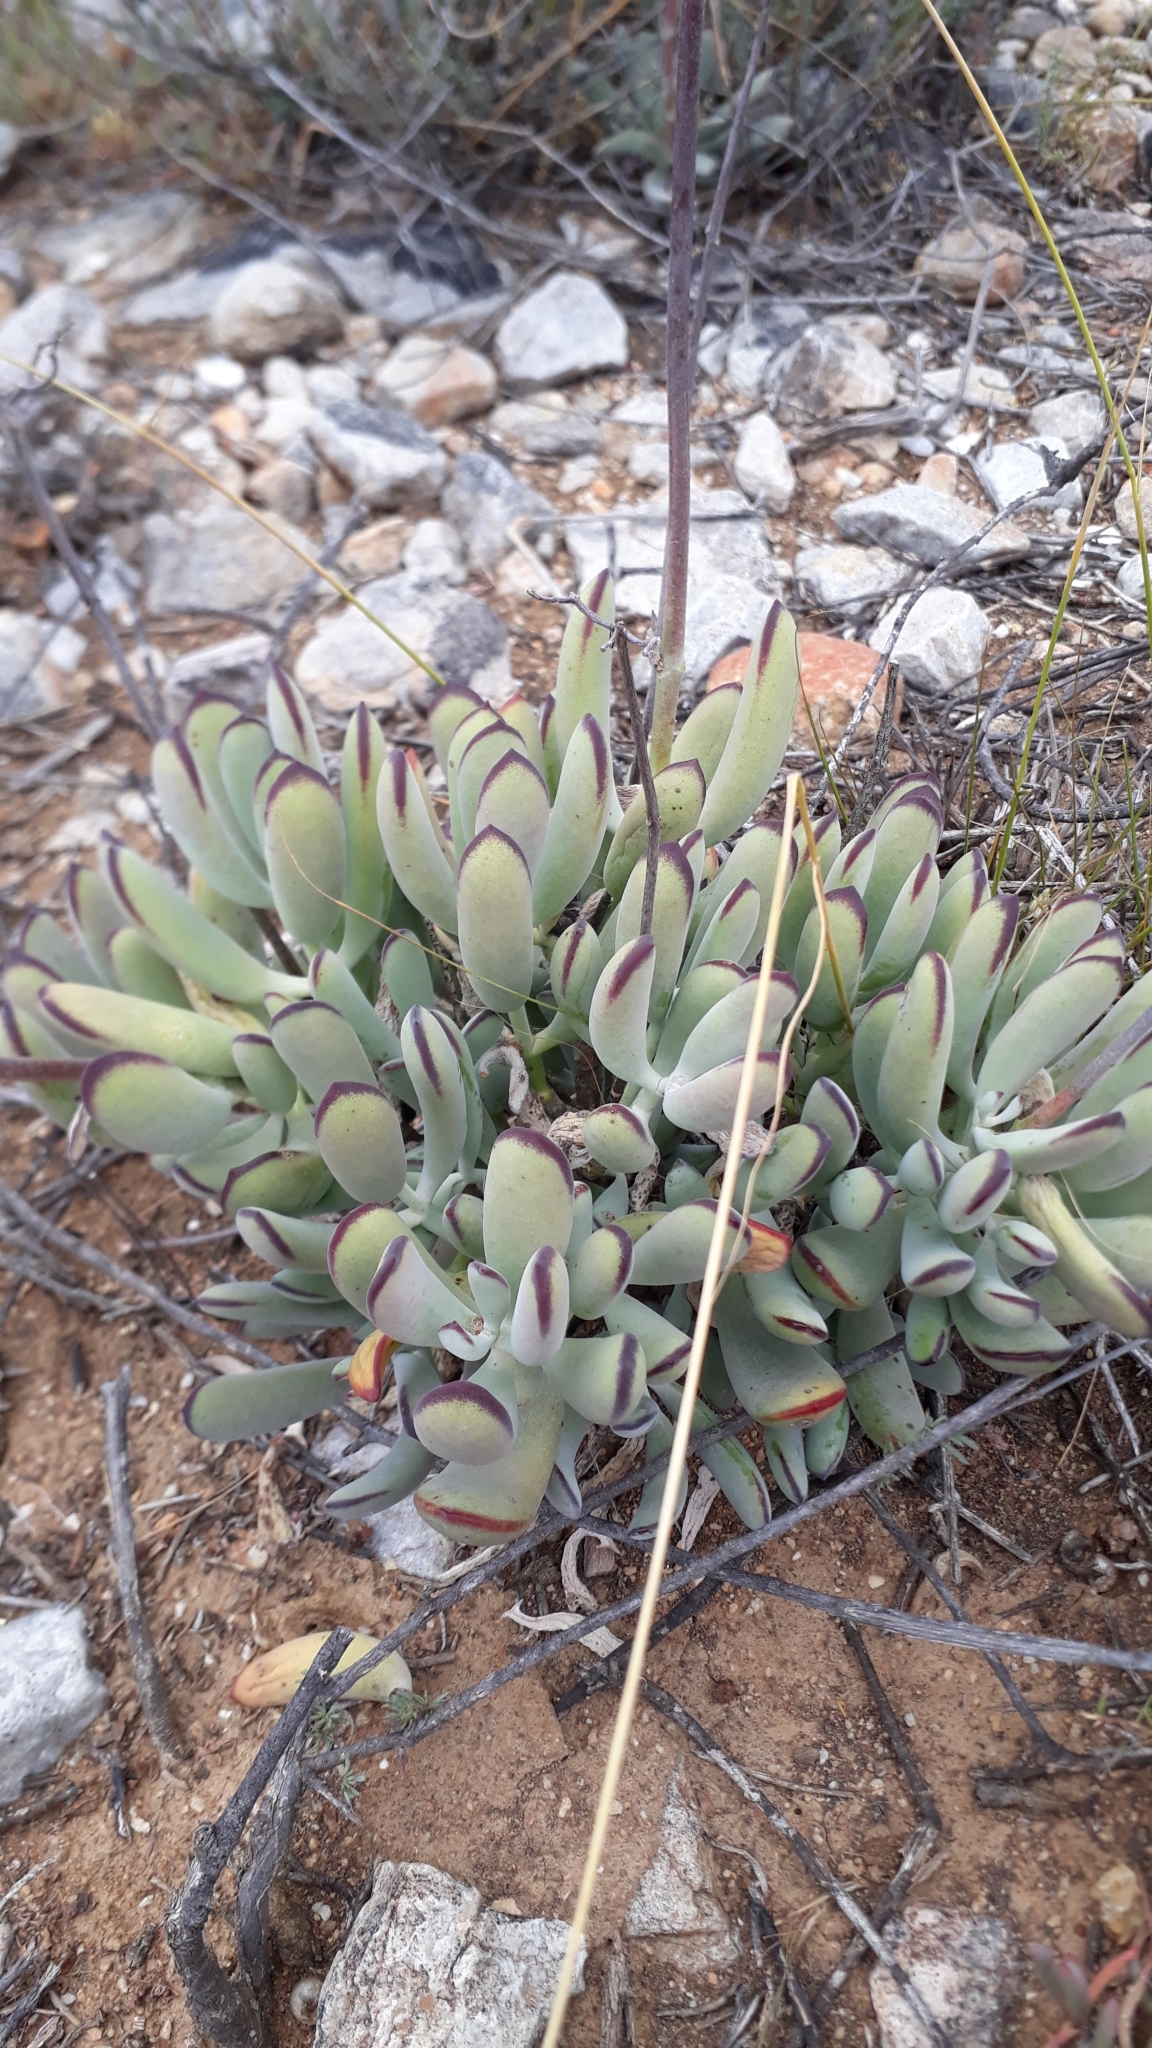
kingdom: Plantae
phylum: Tracheophyta
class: Magnoliopsida
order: Saxifragales
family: Crassulaceae
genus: Cotyledon
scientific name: Cotyledon orbiculata
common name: Pig's ear
